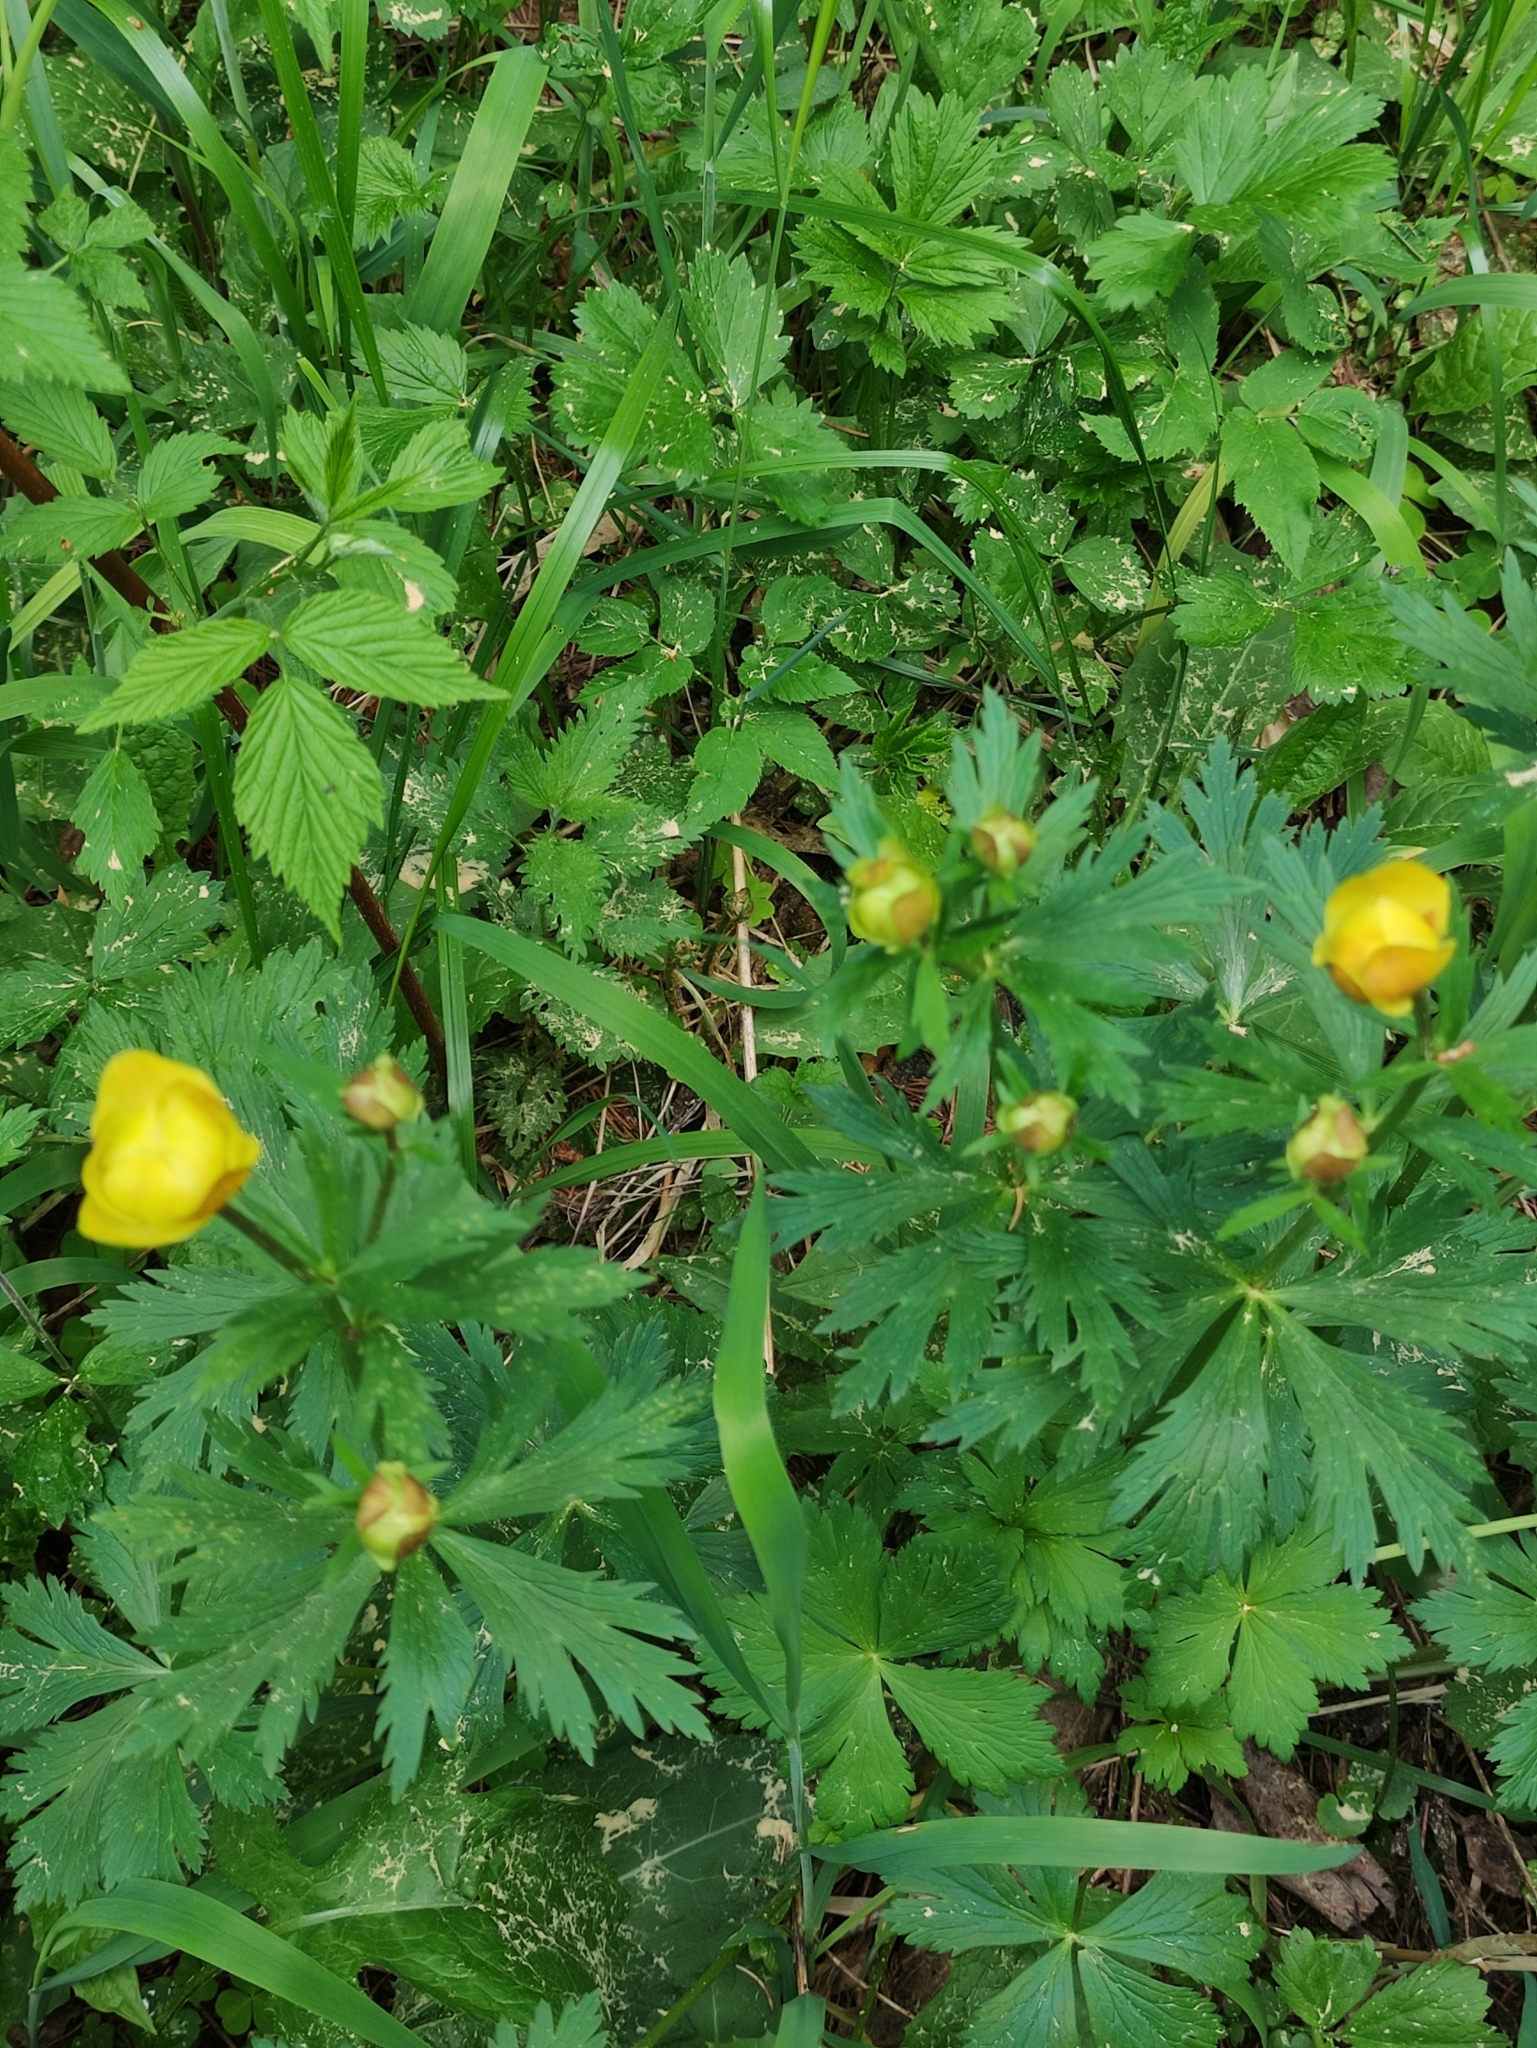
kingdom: Plantae
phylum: Tracheophyta
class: Magnoliopsida
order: Ranunculales
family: Ranunculaceae
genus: Trollius
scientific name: Trollius europaeus
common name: European globeflower
